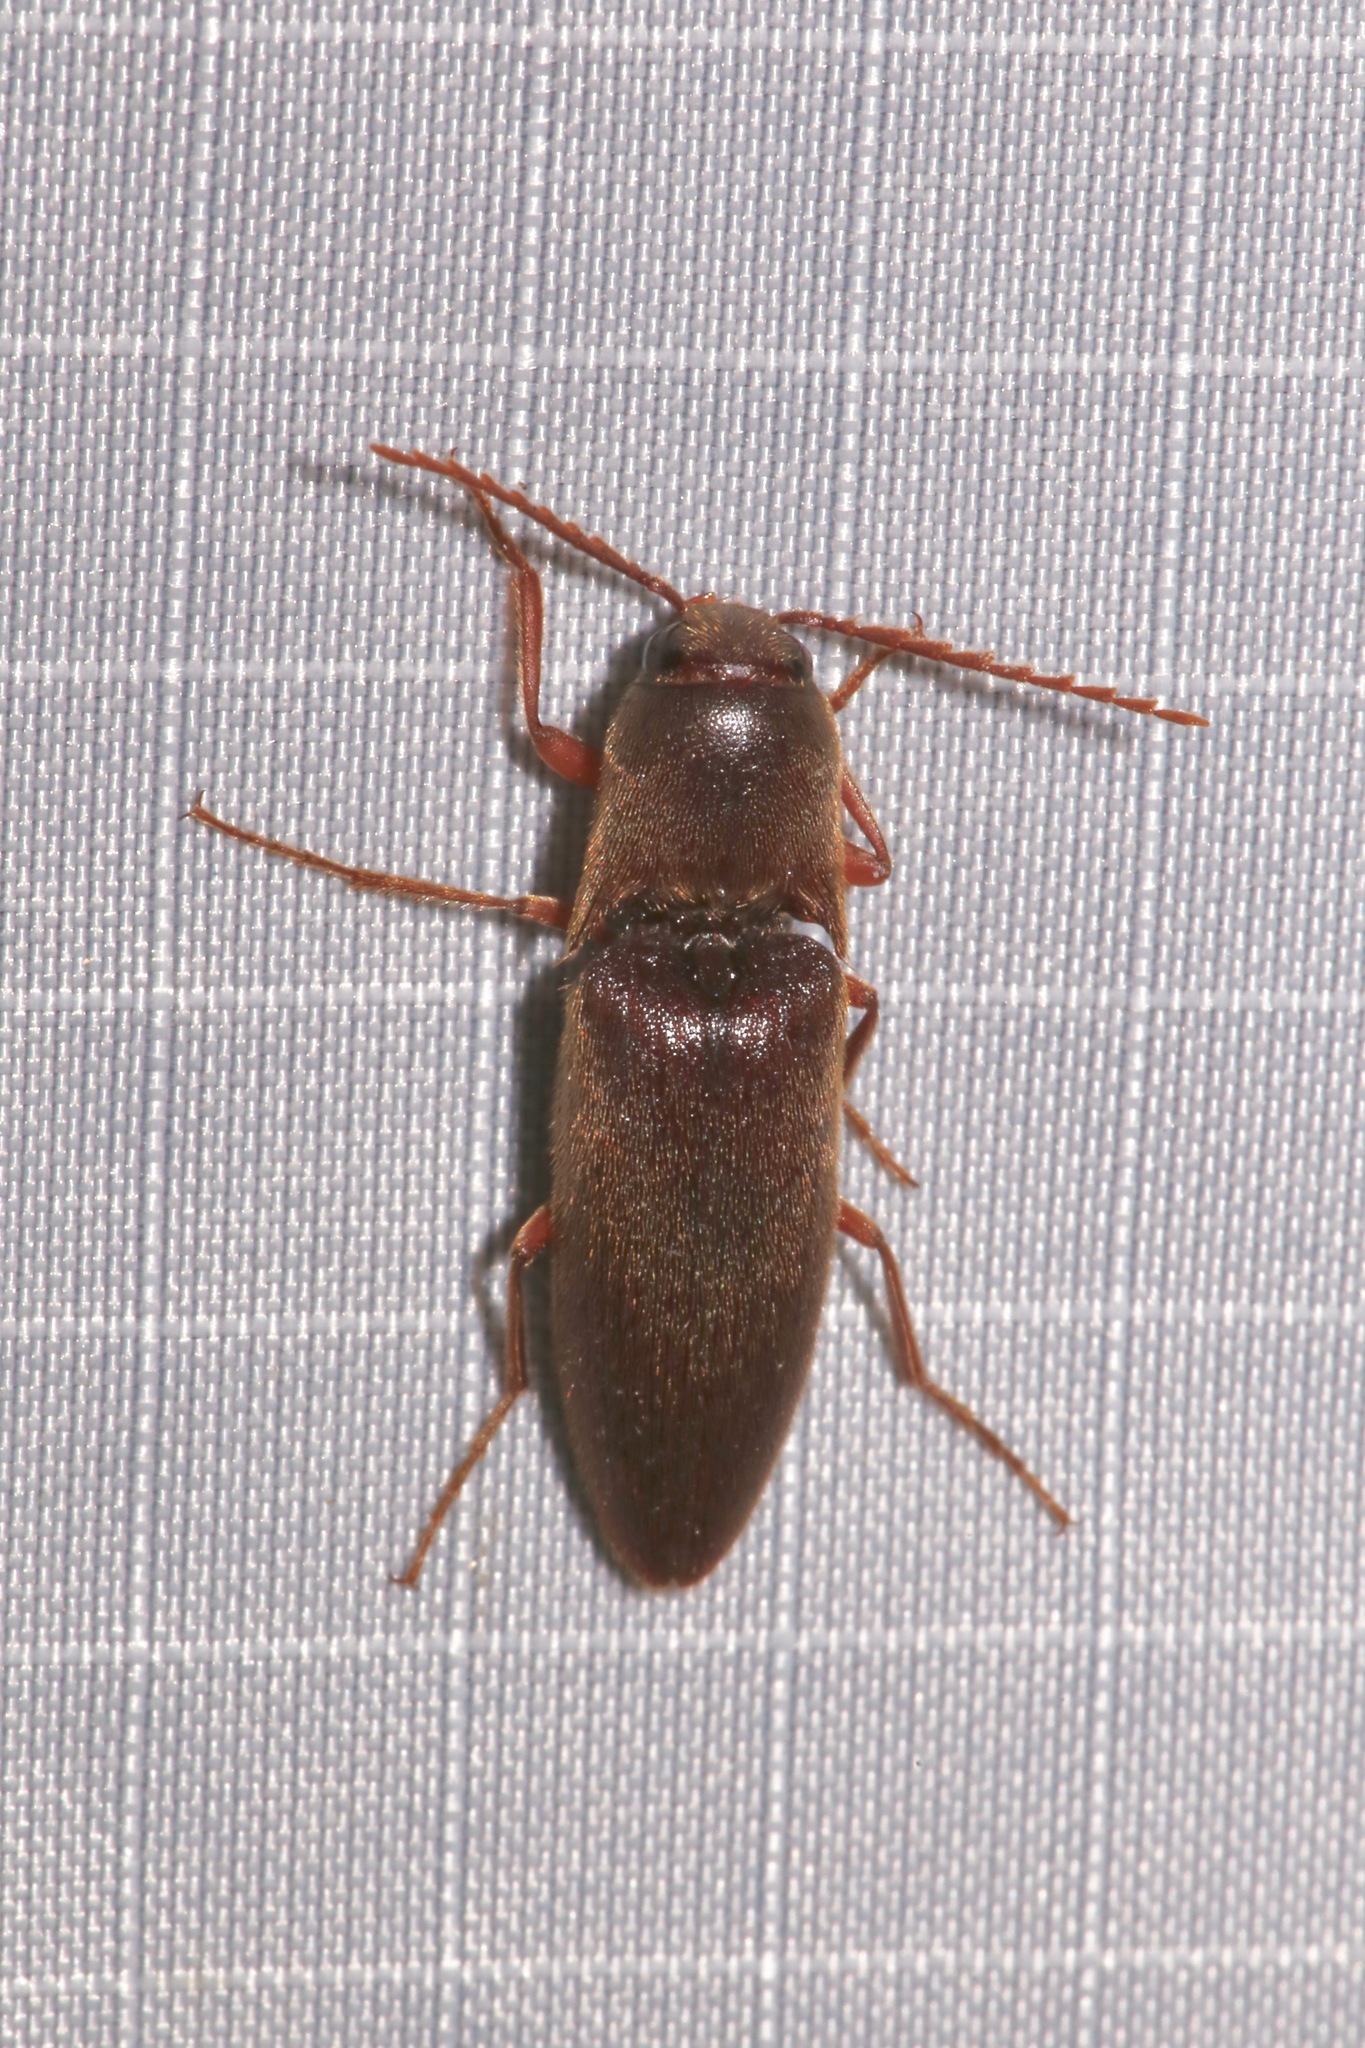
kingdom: Animalia
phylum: Arthropoda
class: Insecta
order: Coleoptera
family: Elateridae
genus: Diplostethus
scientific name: Diplostethus
